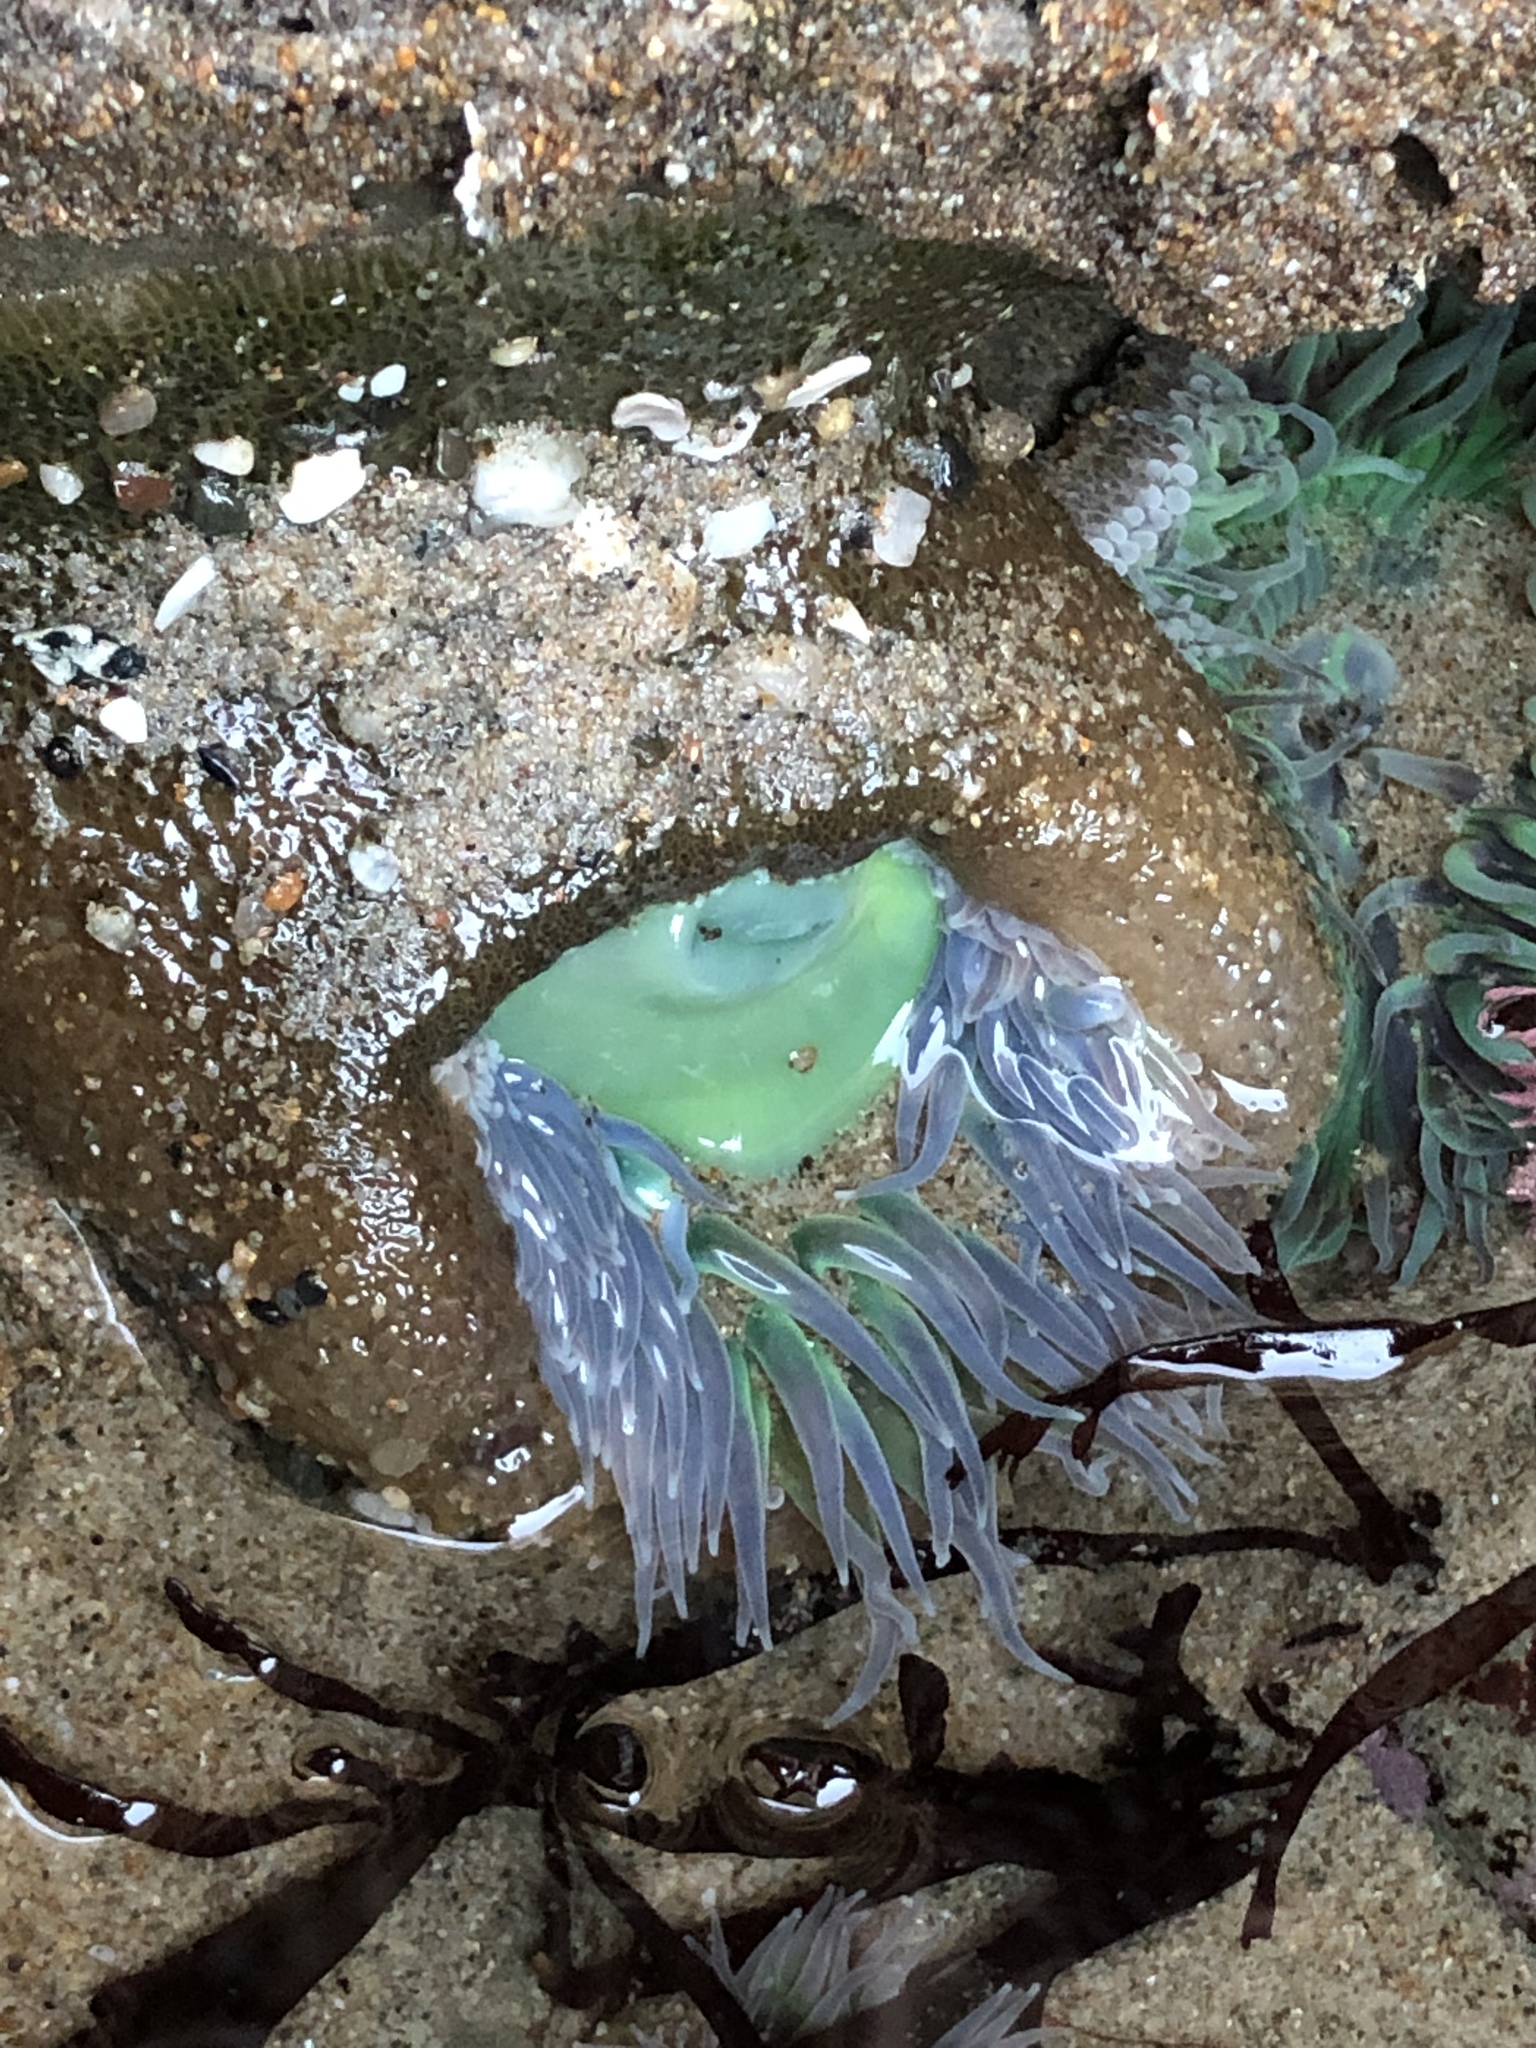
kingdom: Animalia
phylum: Cnidaria
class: Anthozoa
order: Actiniaria
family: Actiniidae
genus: Anthopleura
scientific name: Anthopleura xanthogrammica
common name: Giant green anemone
